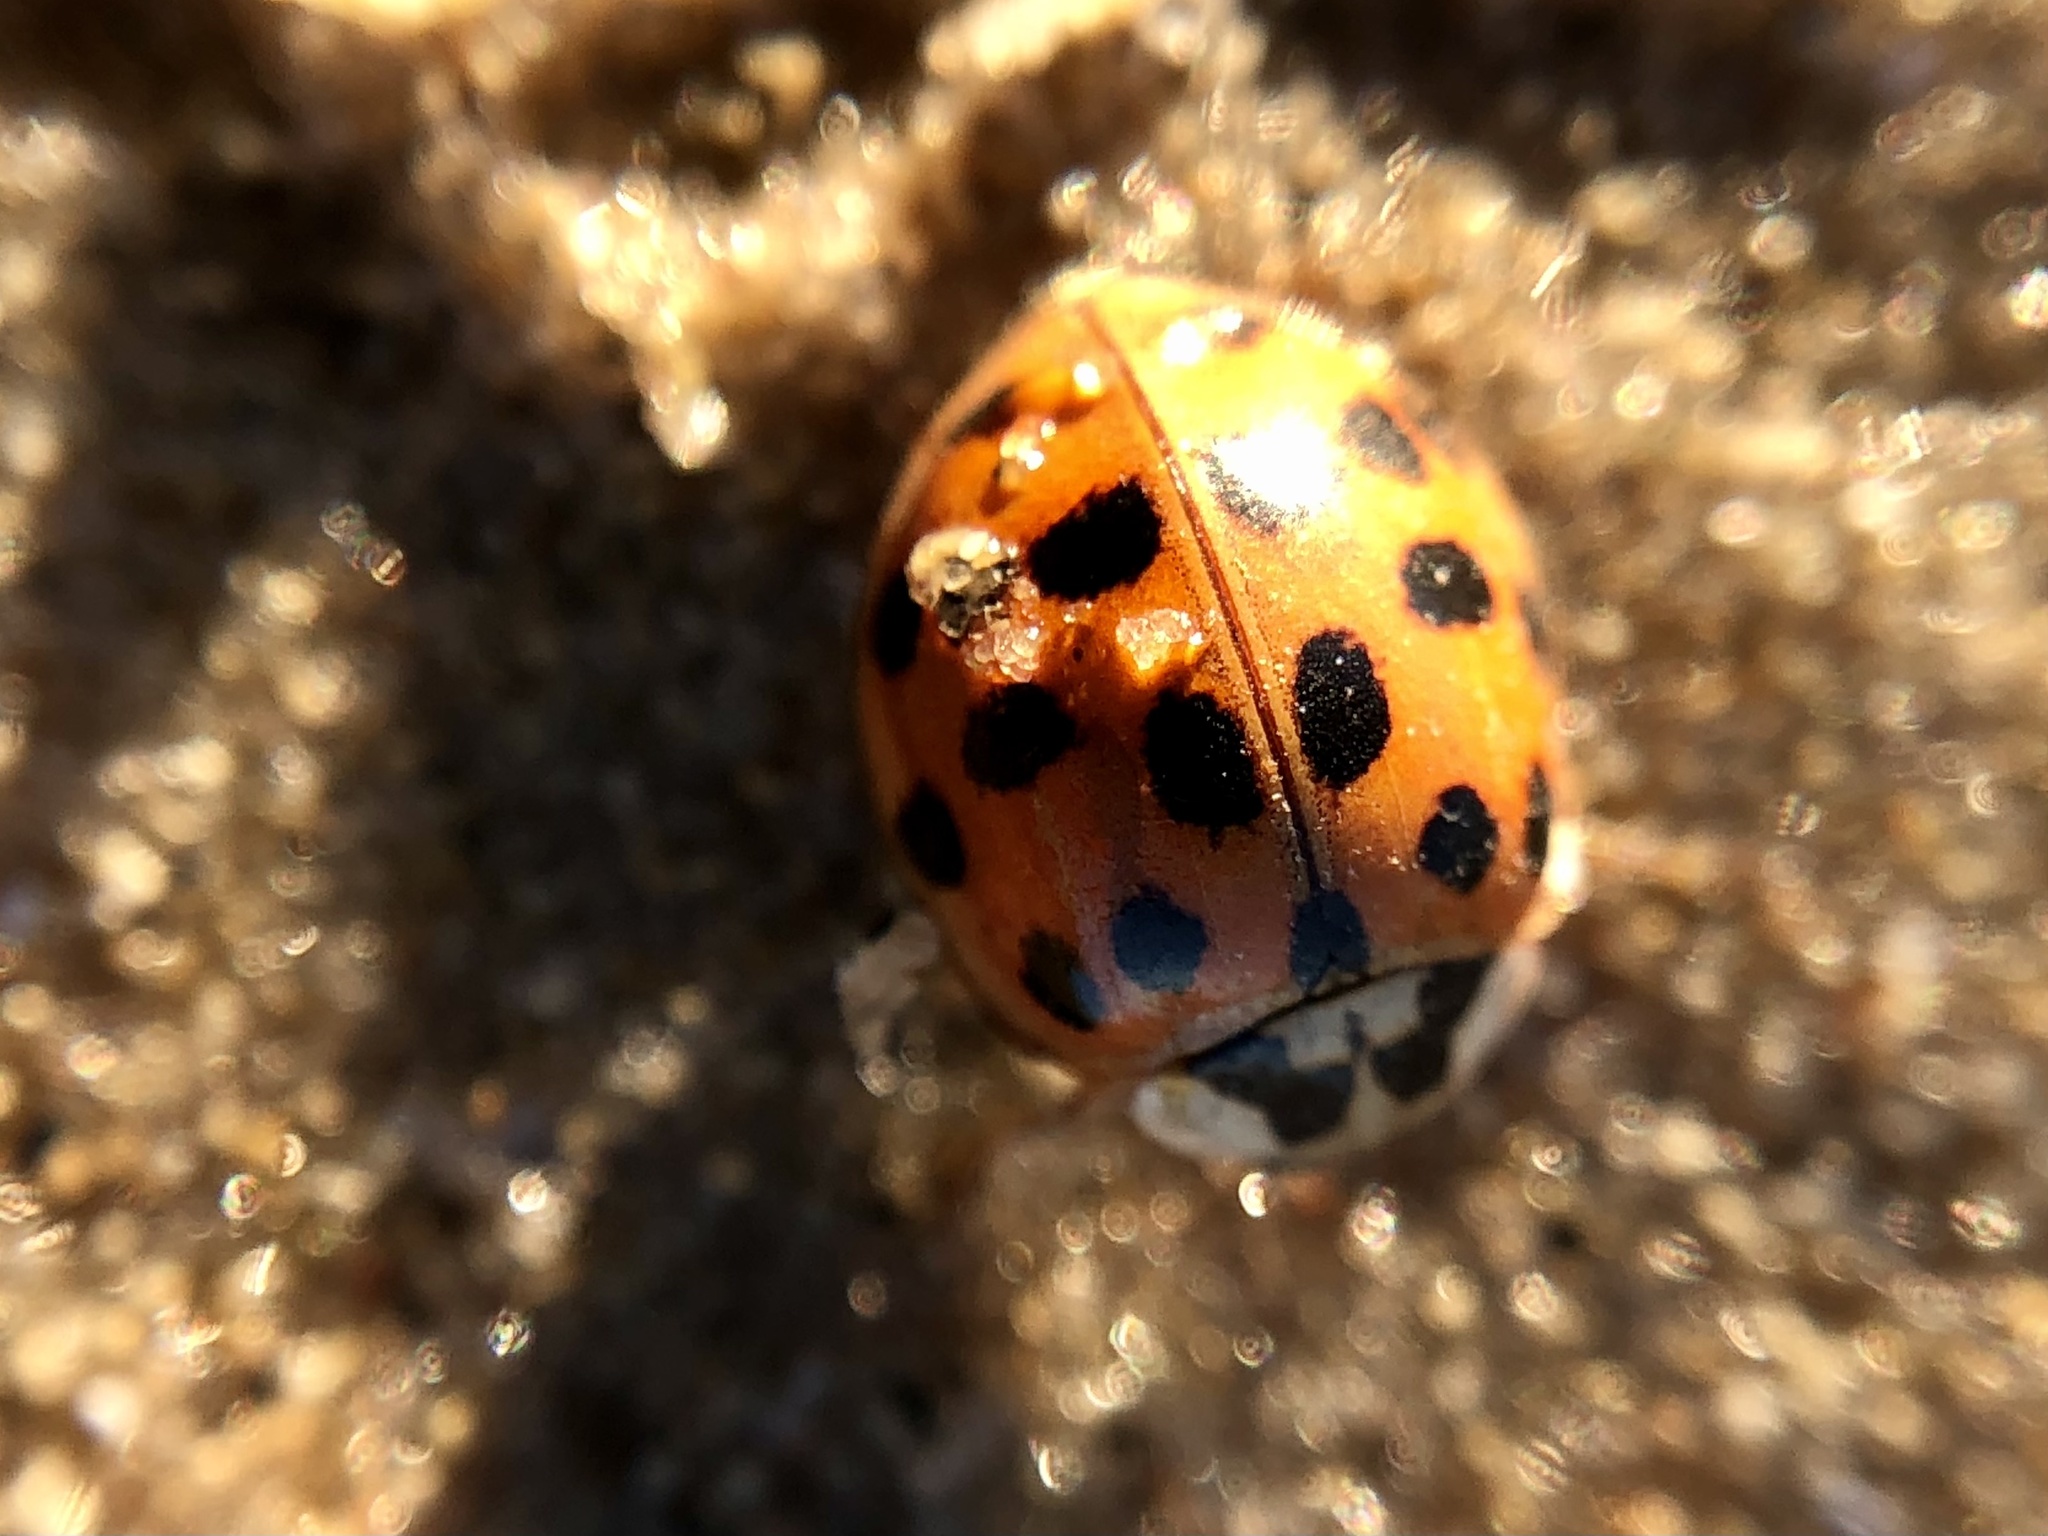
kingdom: Animalia
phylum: Arthropoda
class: Insecta
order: Coleoptera
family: Coccinellidae
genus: Harmonia
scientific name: Harmonia axyridis
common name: Harlequin ladybird
